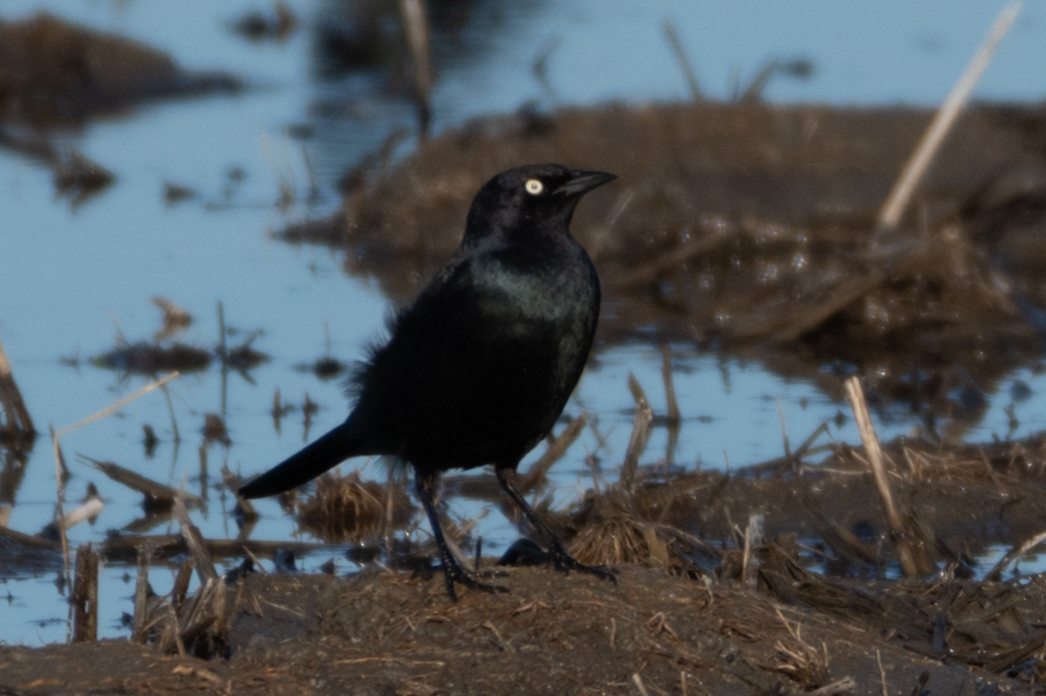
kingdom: Animalia
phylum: Chordata
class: Aves
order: Passeriformes
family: Icteridae
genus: Euphagus
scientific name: Euphagus cyanocephalus
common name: Brewer's blackbird
